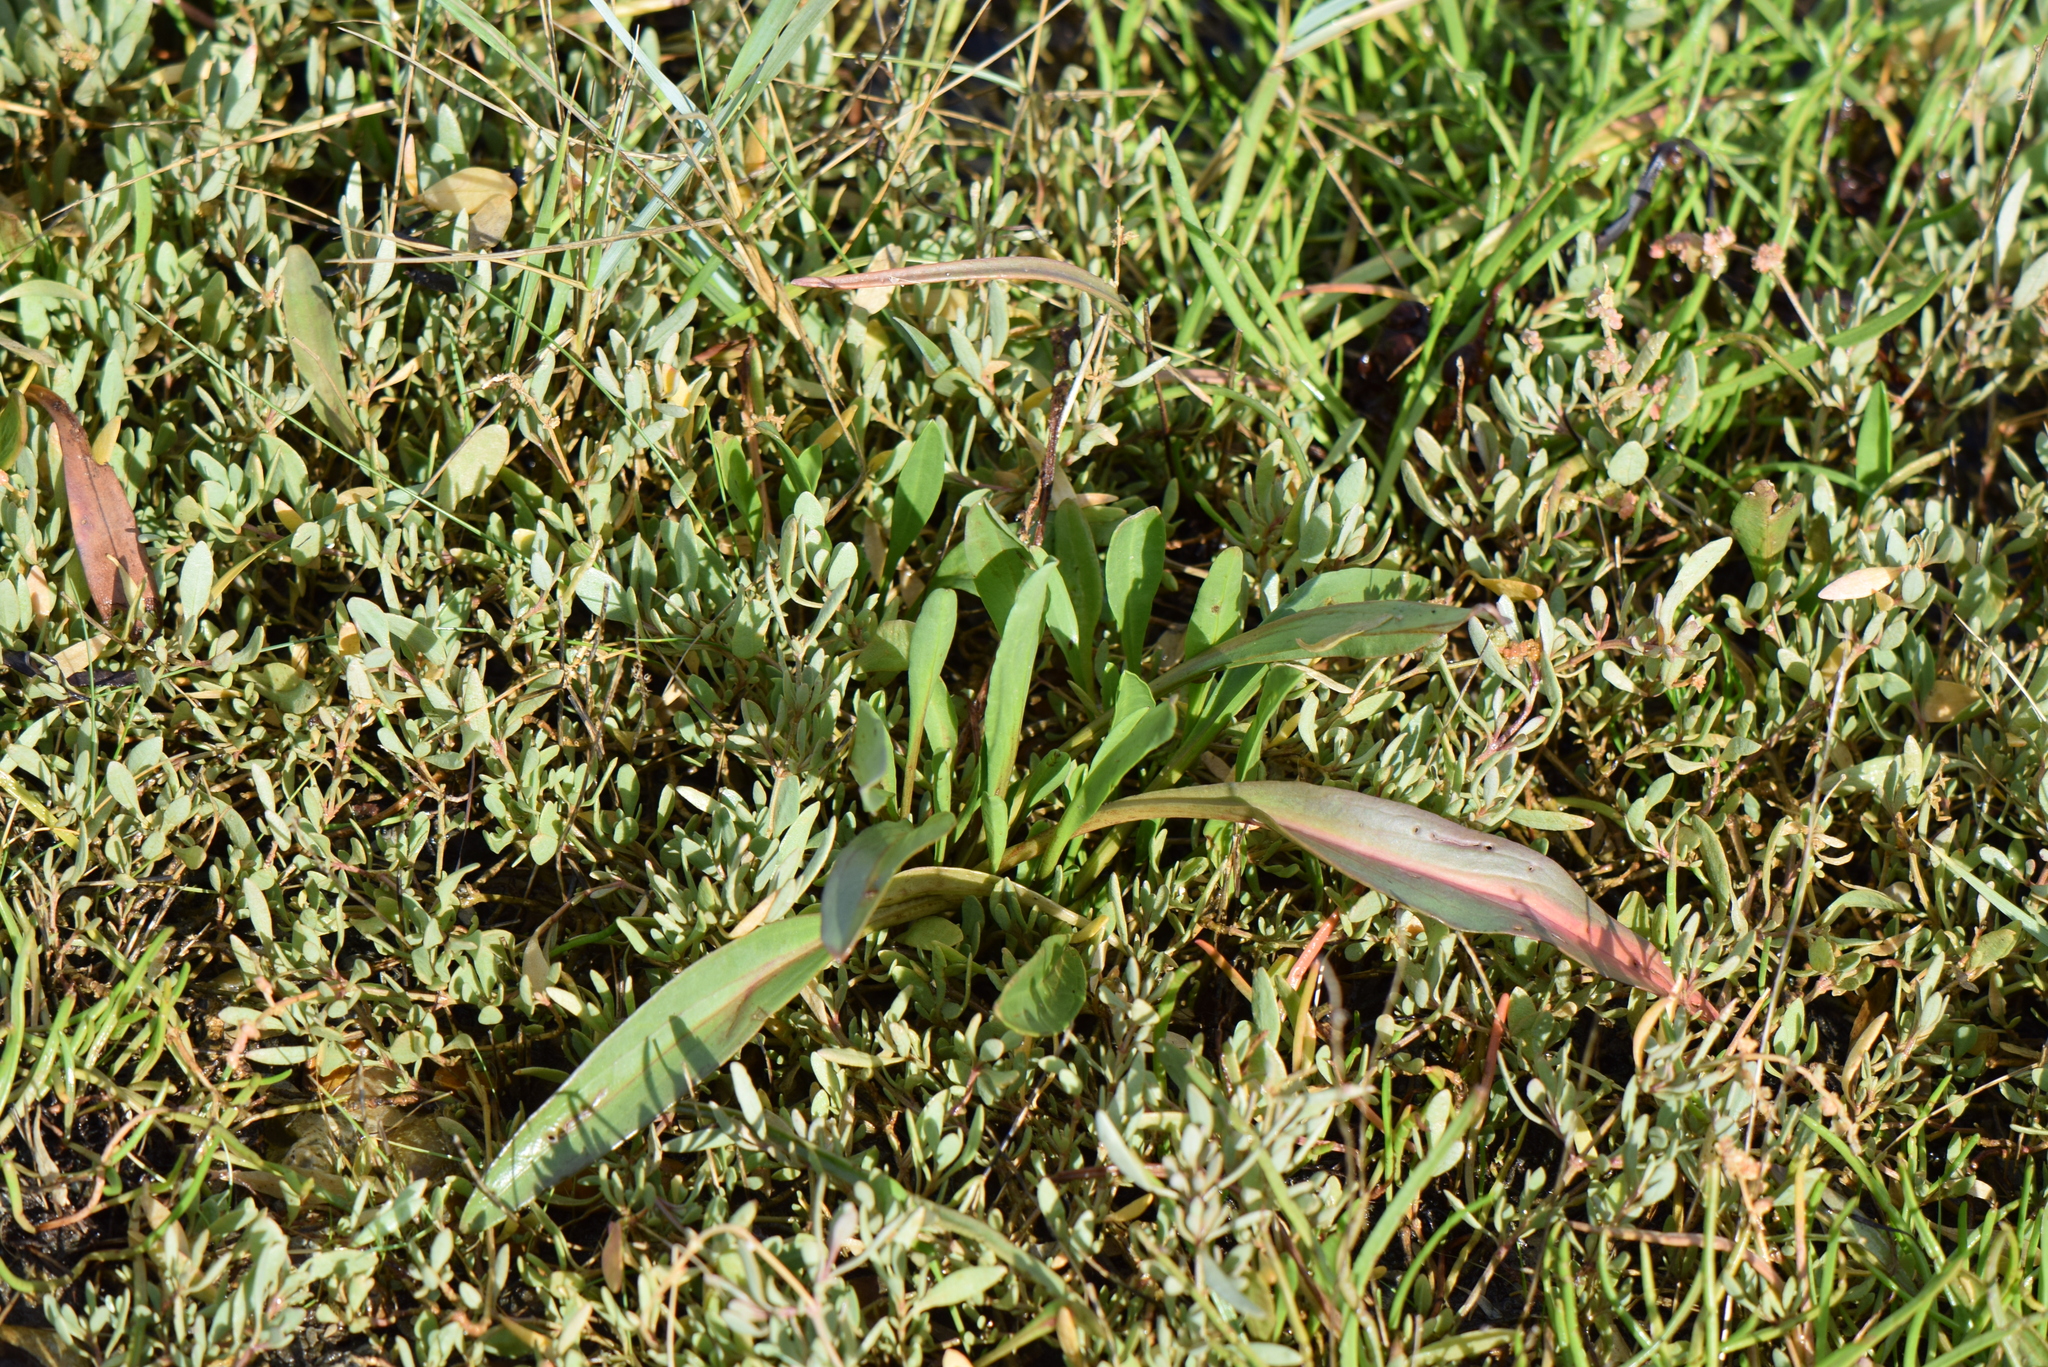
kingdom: Plantae
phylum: Tracheophyta
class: Magnoliopsida
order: Asterales
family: Asteraceae
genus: Tripolium
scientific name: Tripolium pannonicum
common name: Sea aster
